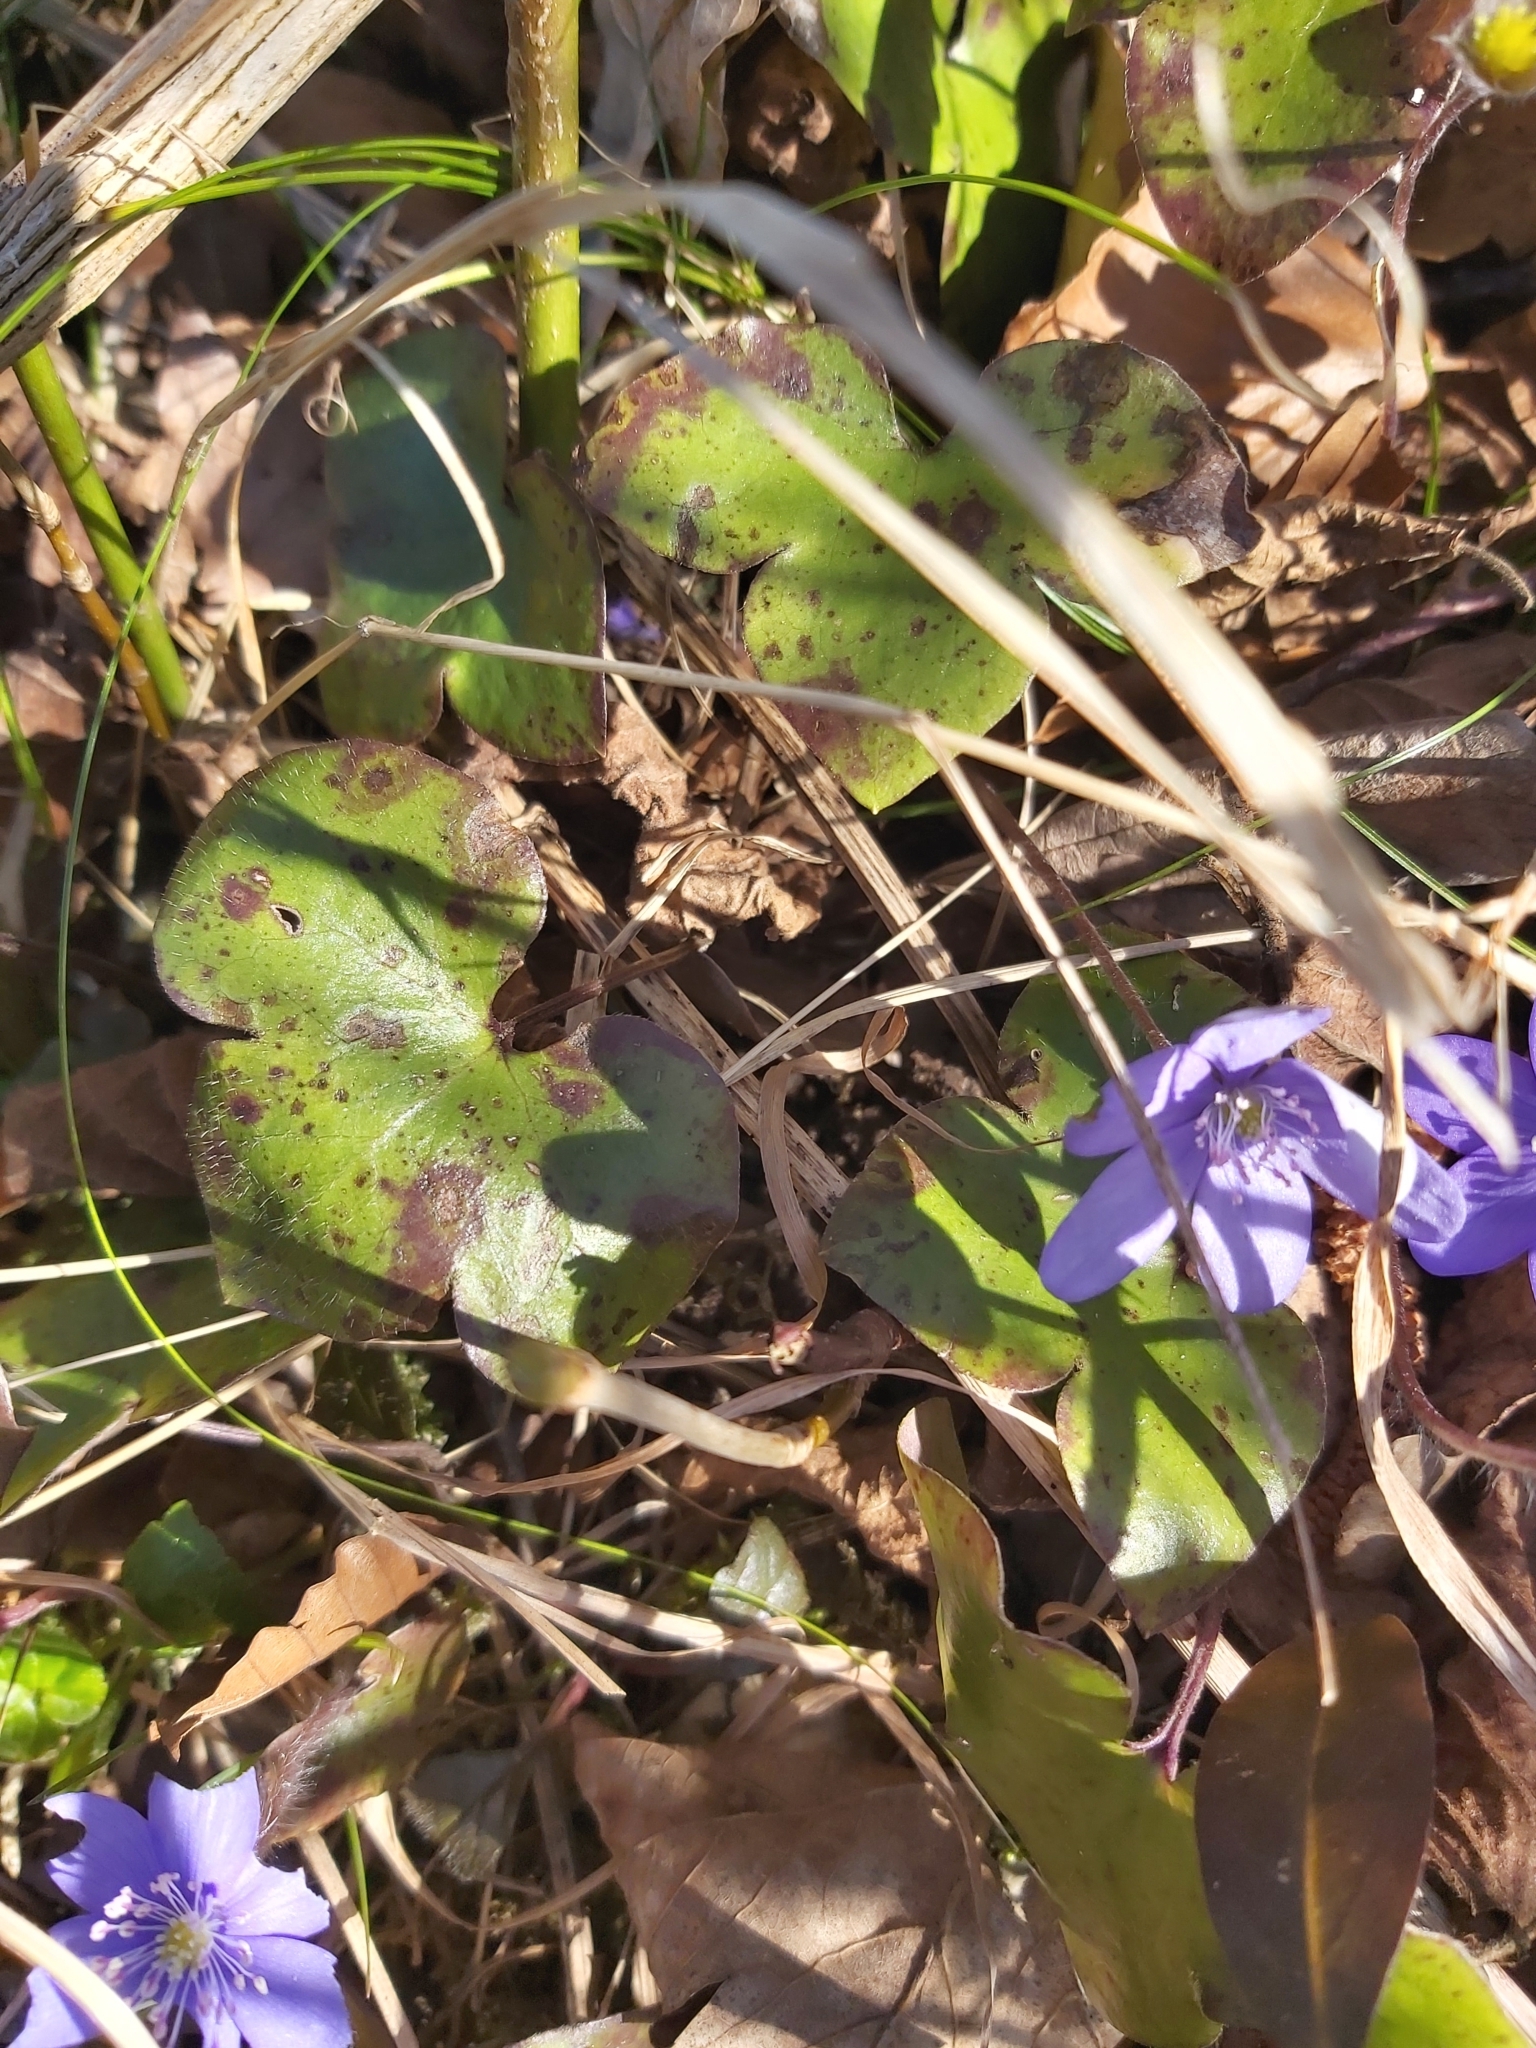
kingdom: Plantae
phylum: Tracheophyta
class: Magnoliopsida
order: Ranunculales
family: Ranunculaceae
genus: Hepatica
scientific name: Hepatica nobilis
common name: Liverleaf
